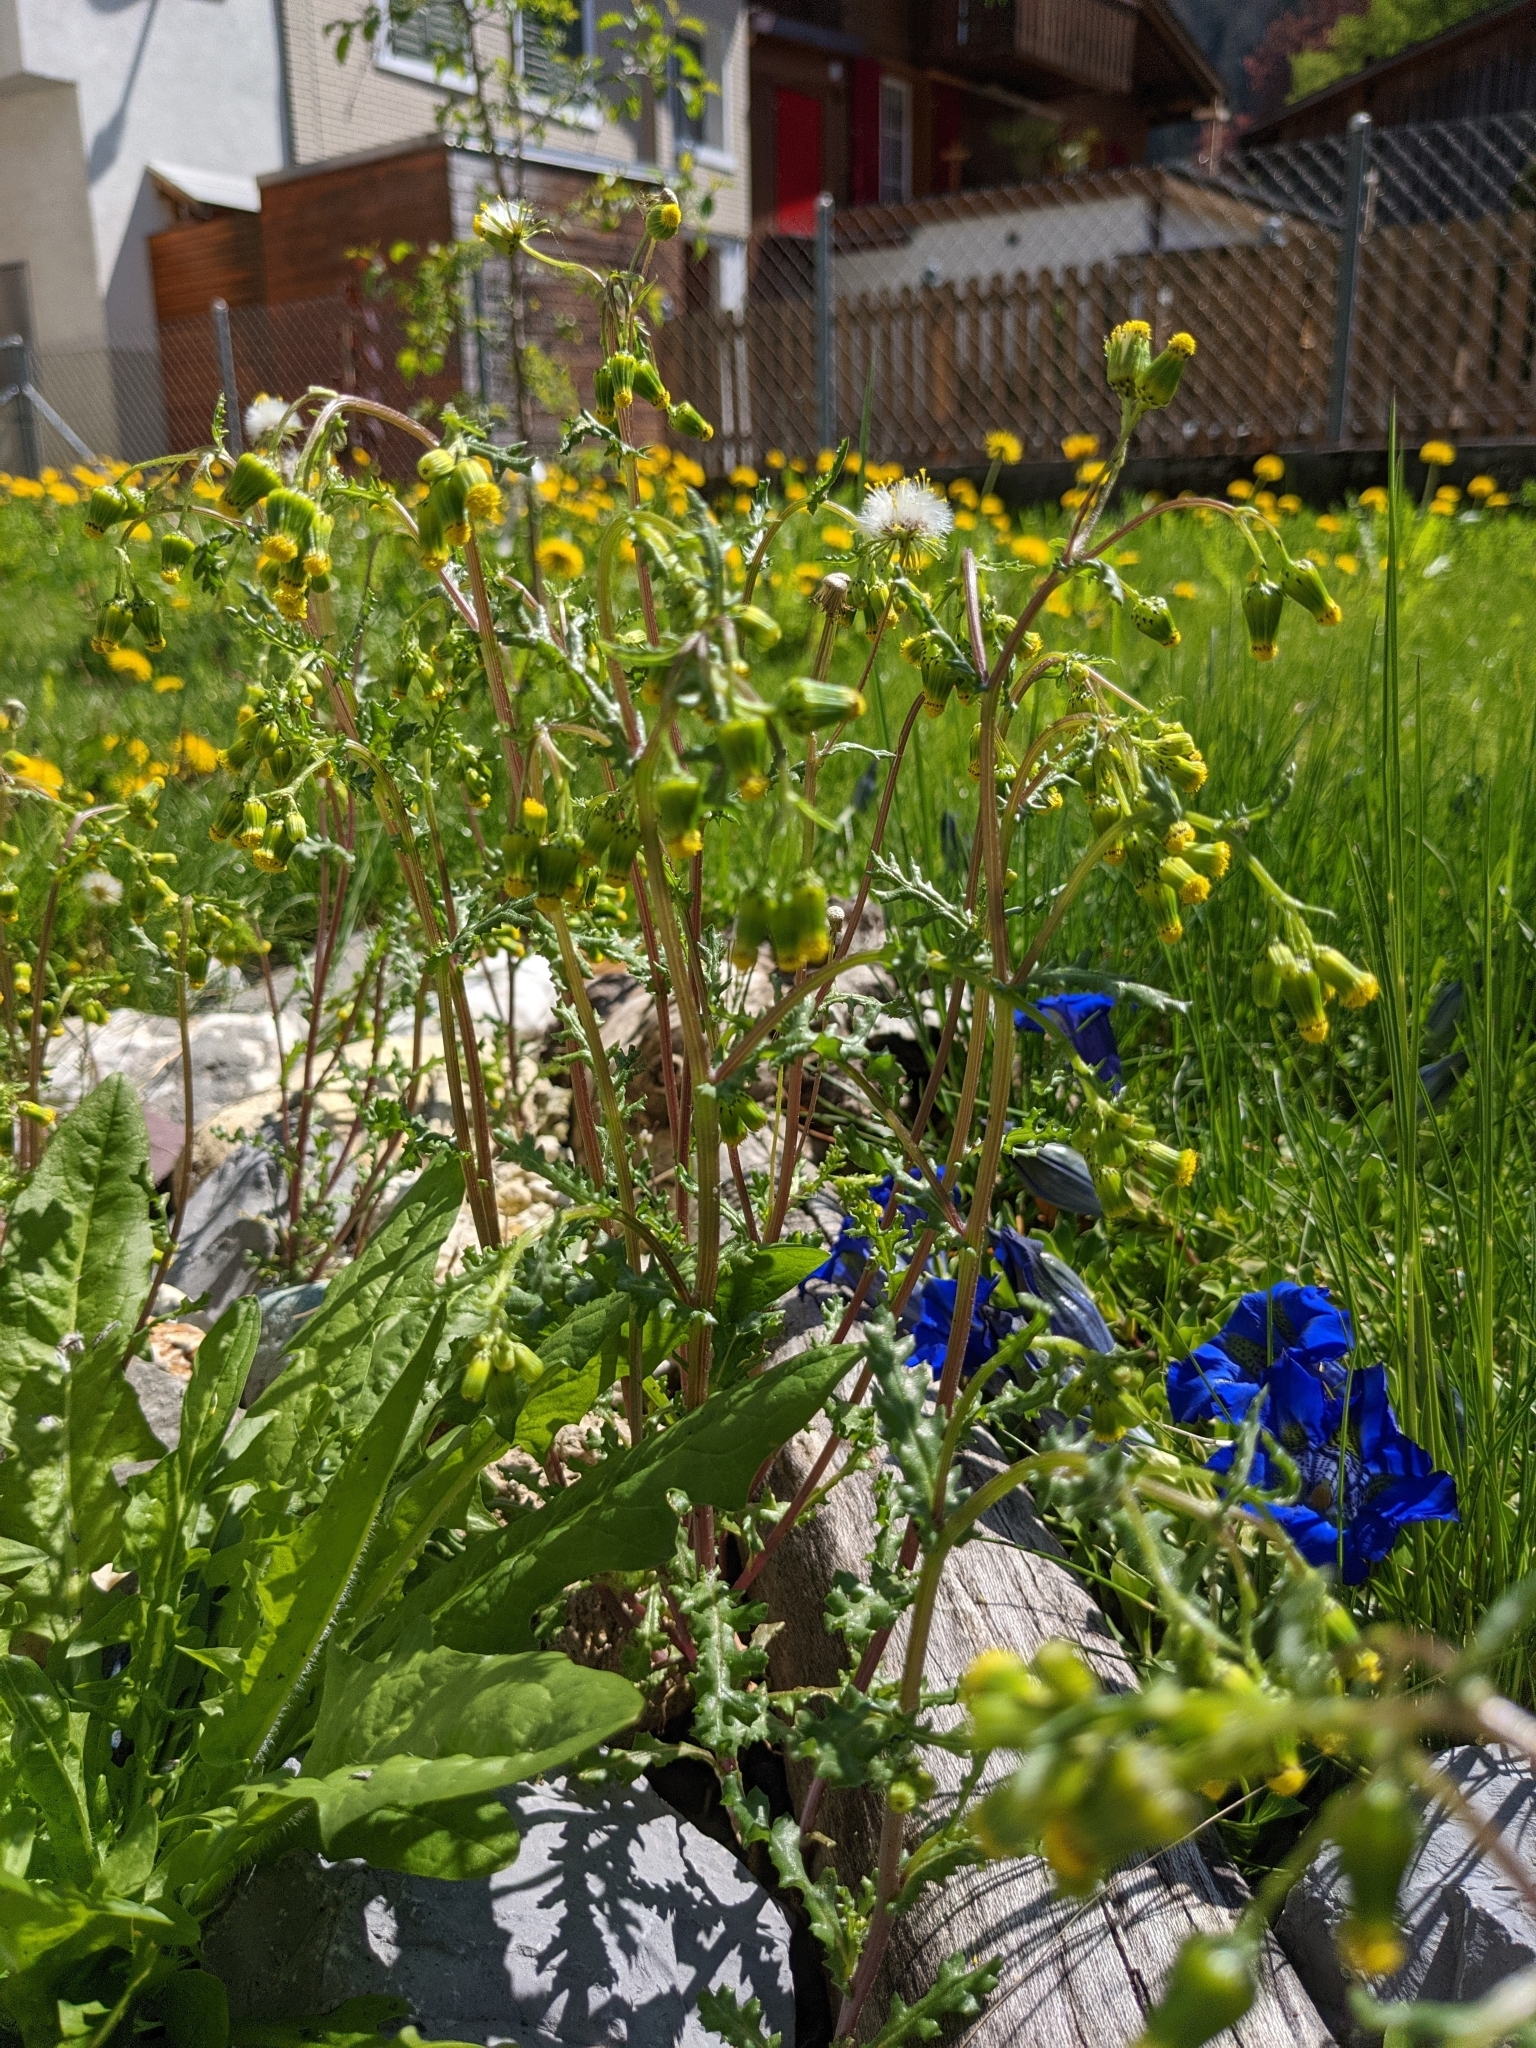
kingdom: Plantae
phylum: Tracheophyta
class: Magnoliopsida
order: Asterales
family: Asteraceae
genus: Senecio
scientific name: Senecio vulgaris
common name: Old-man-in-the-spring
